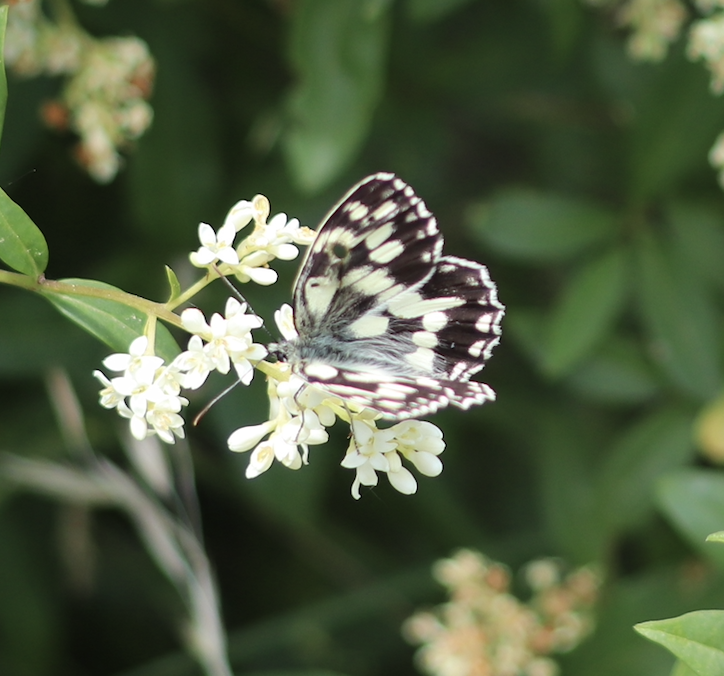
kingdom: Animalia
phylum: Arthropoda
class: Insecta
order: Lepidoptera
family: Nymphalidae
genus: Melanargia
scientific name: Melanargia galathea
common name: Marbled white
